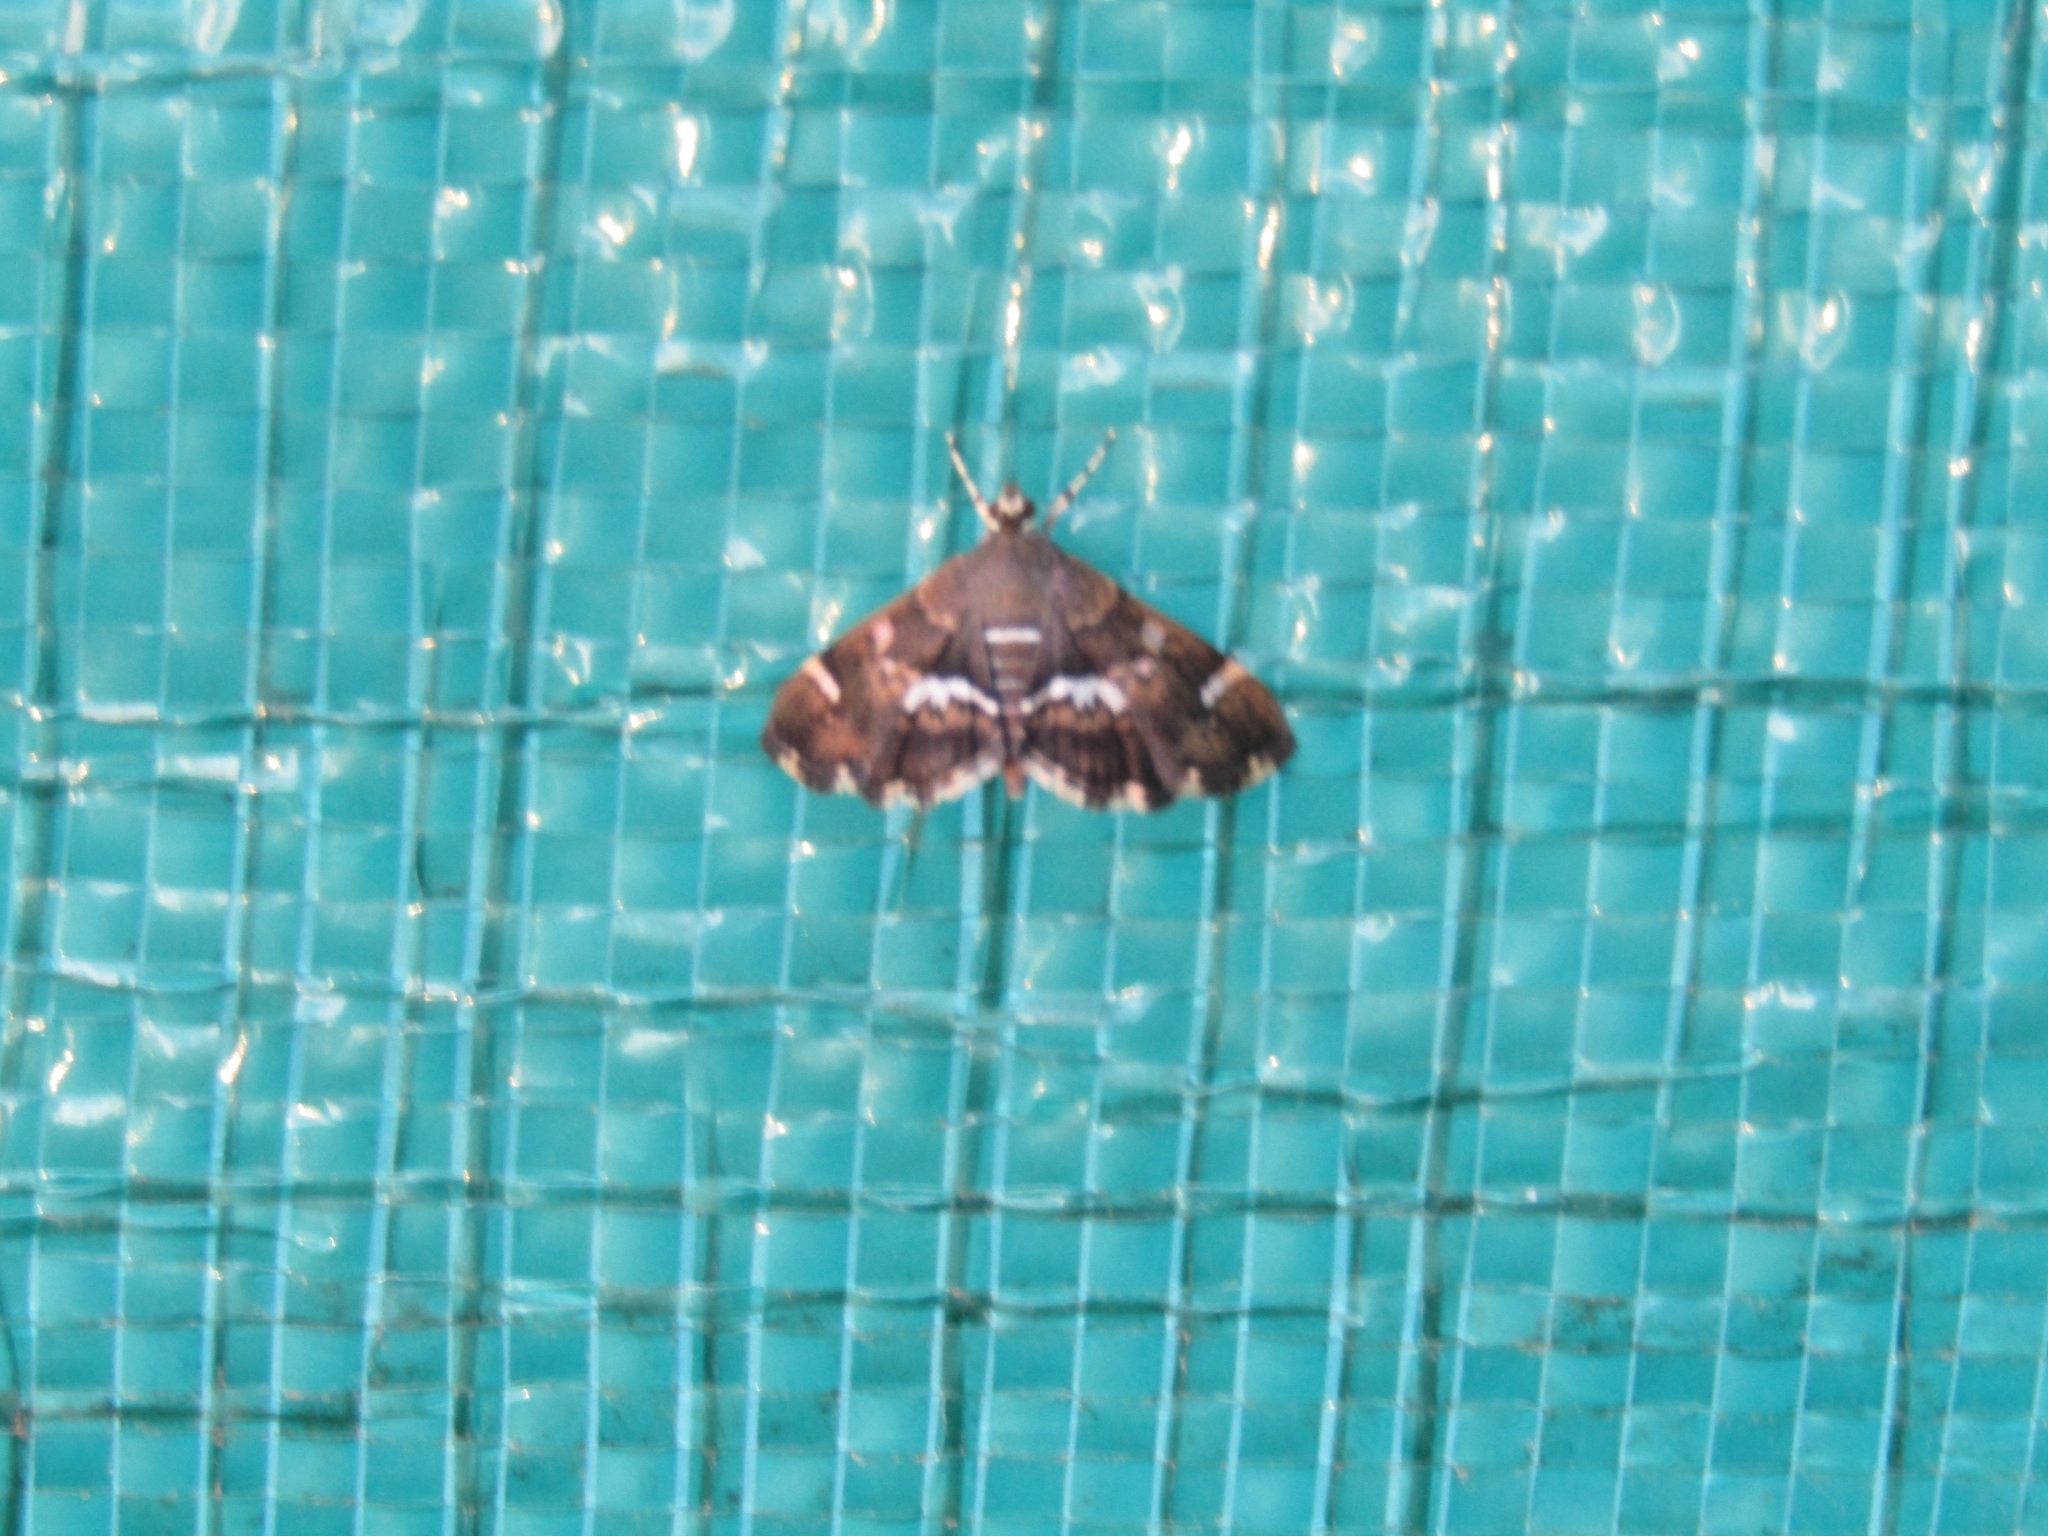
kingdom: Animalia
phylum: Arthropoda
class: Insecta
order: Lepidoptera
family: Crambidae
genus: Hymenia
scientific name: Hymenia perspectalis
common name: Spotted beet webworm
